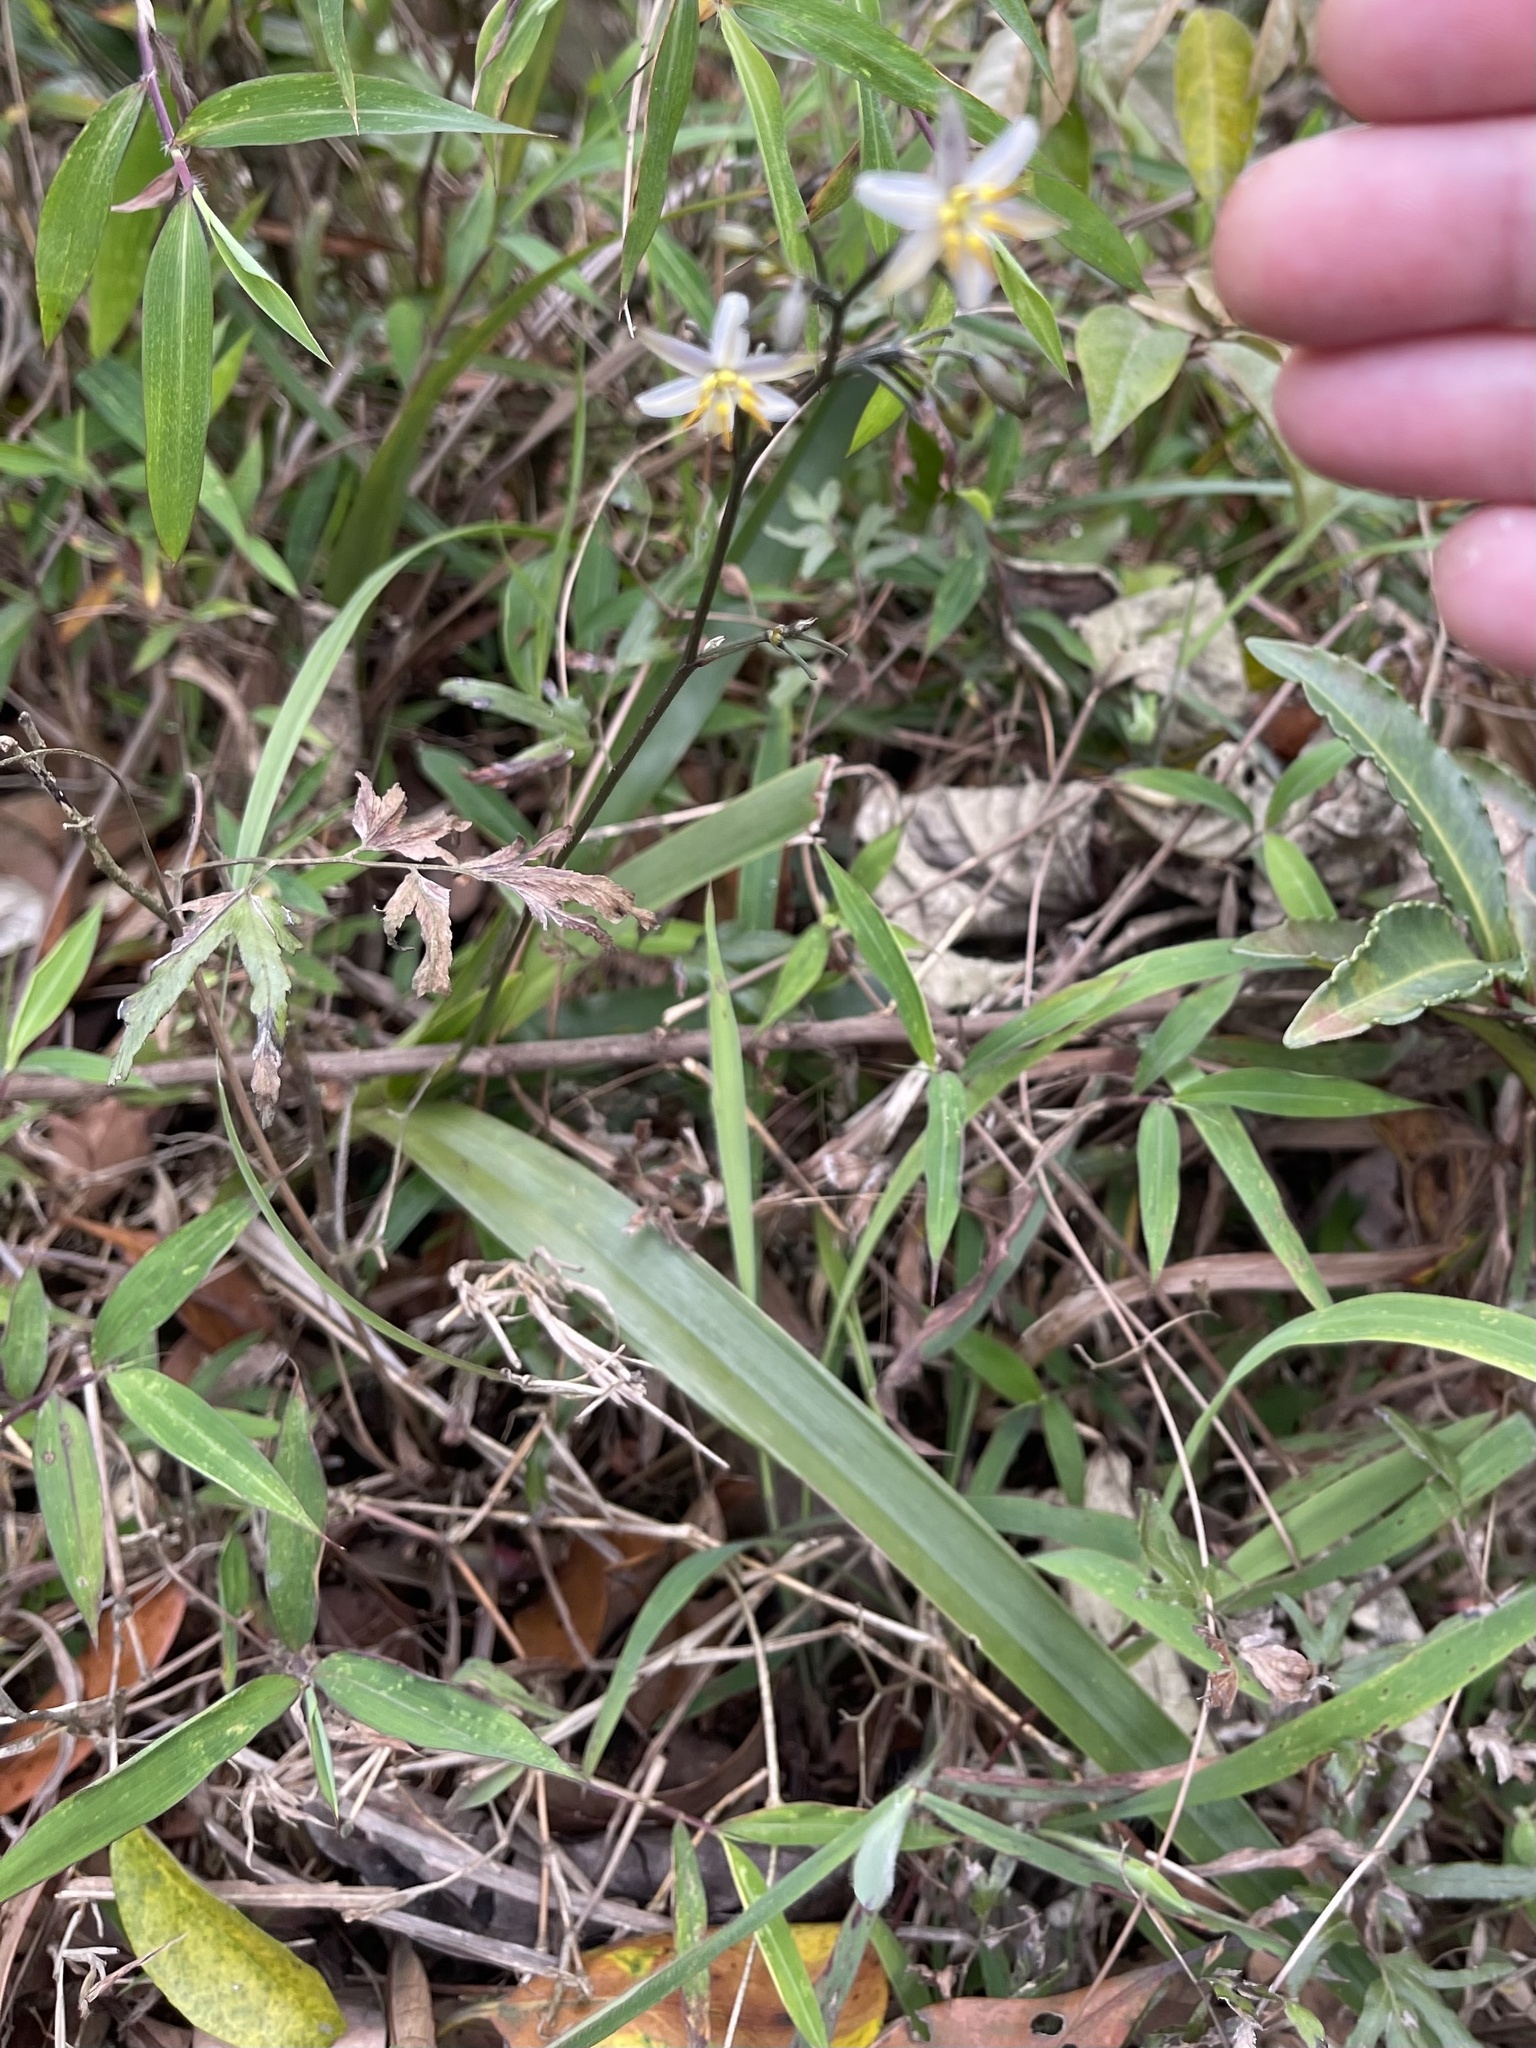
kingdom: Plantae
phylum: Tracheophyta
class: Liliopsida
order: Asparagales
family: Asphodelaceae
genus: Dianella
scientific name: Dianella ensifolia
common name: New zealand lilyplant
